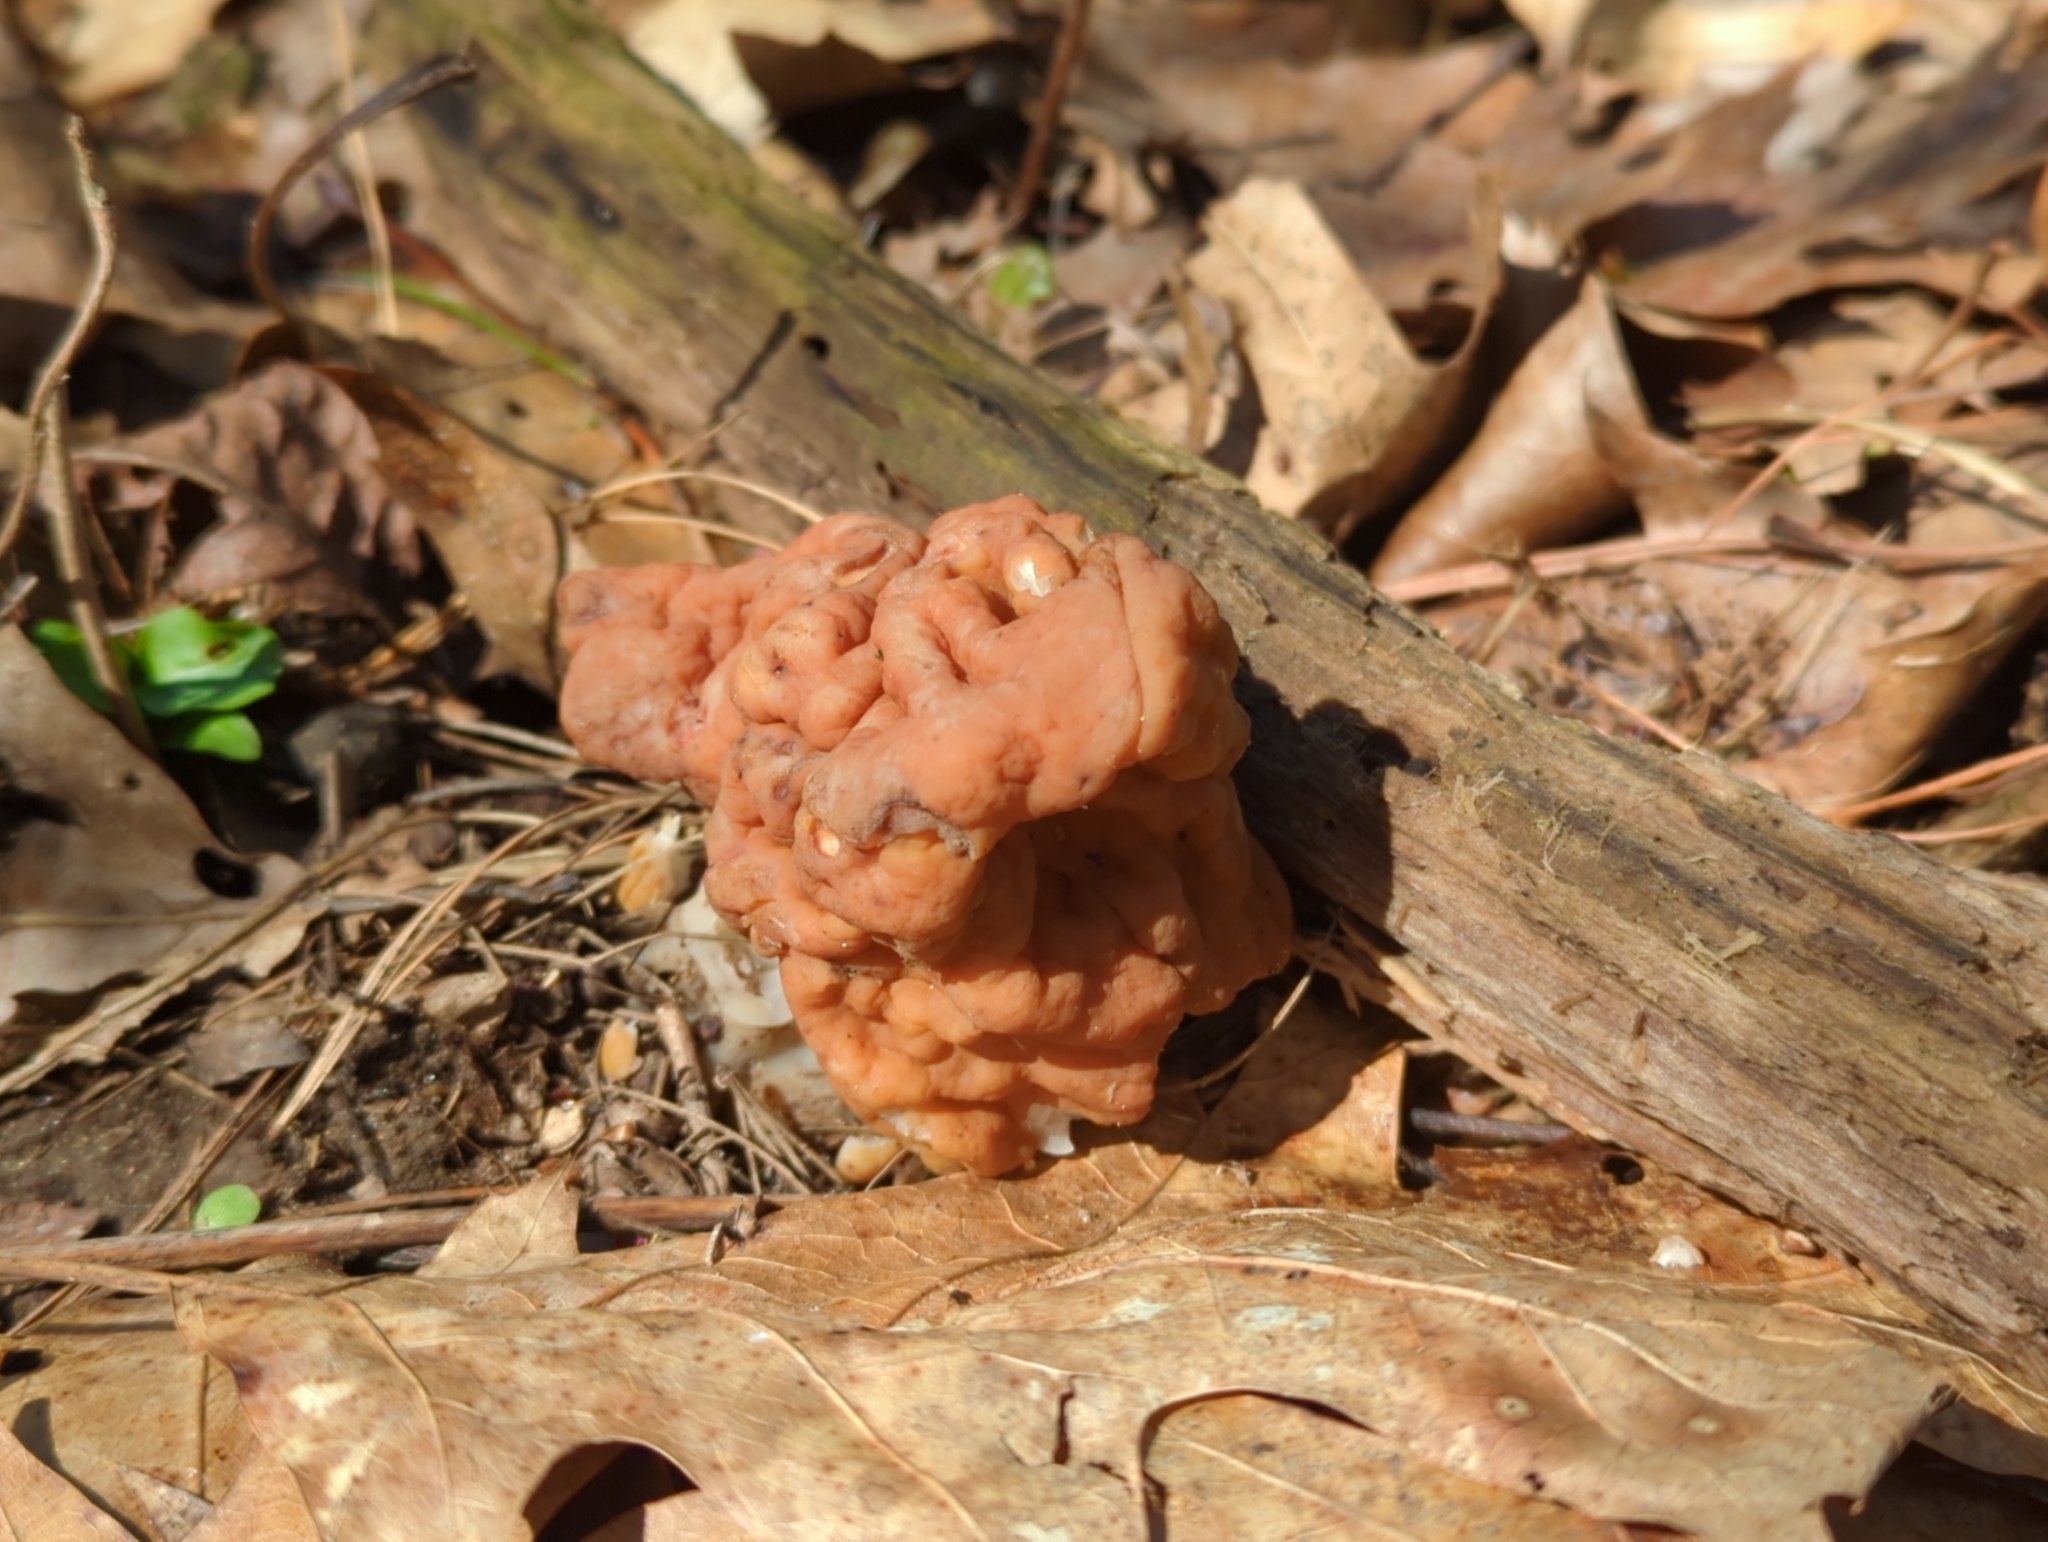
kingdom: Fungi
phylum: Ascomycota
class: Pezizomycetes
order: Pezizales
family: Discinaceae
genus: Gyromitra
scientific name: Gyromitra korfii
